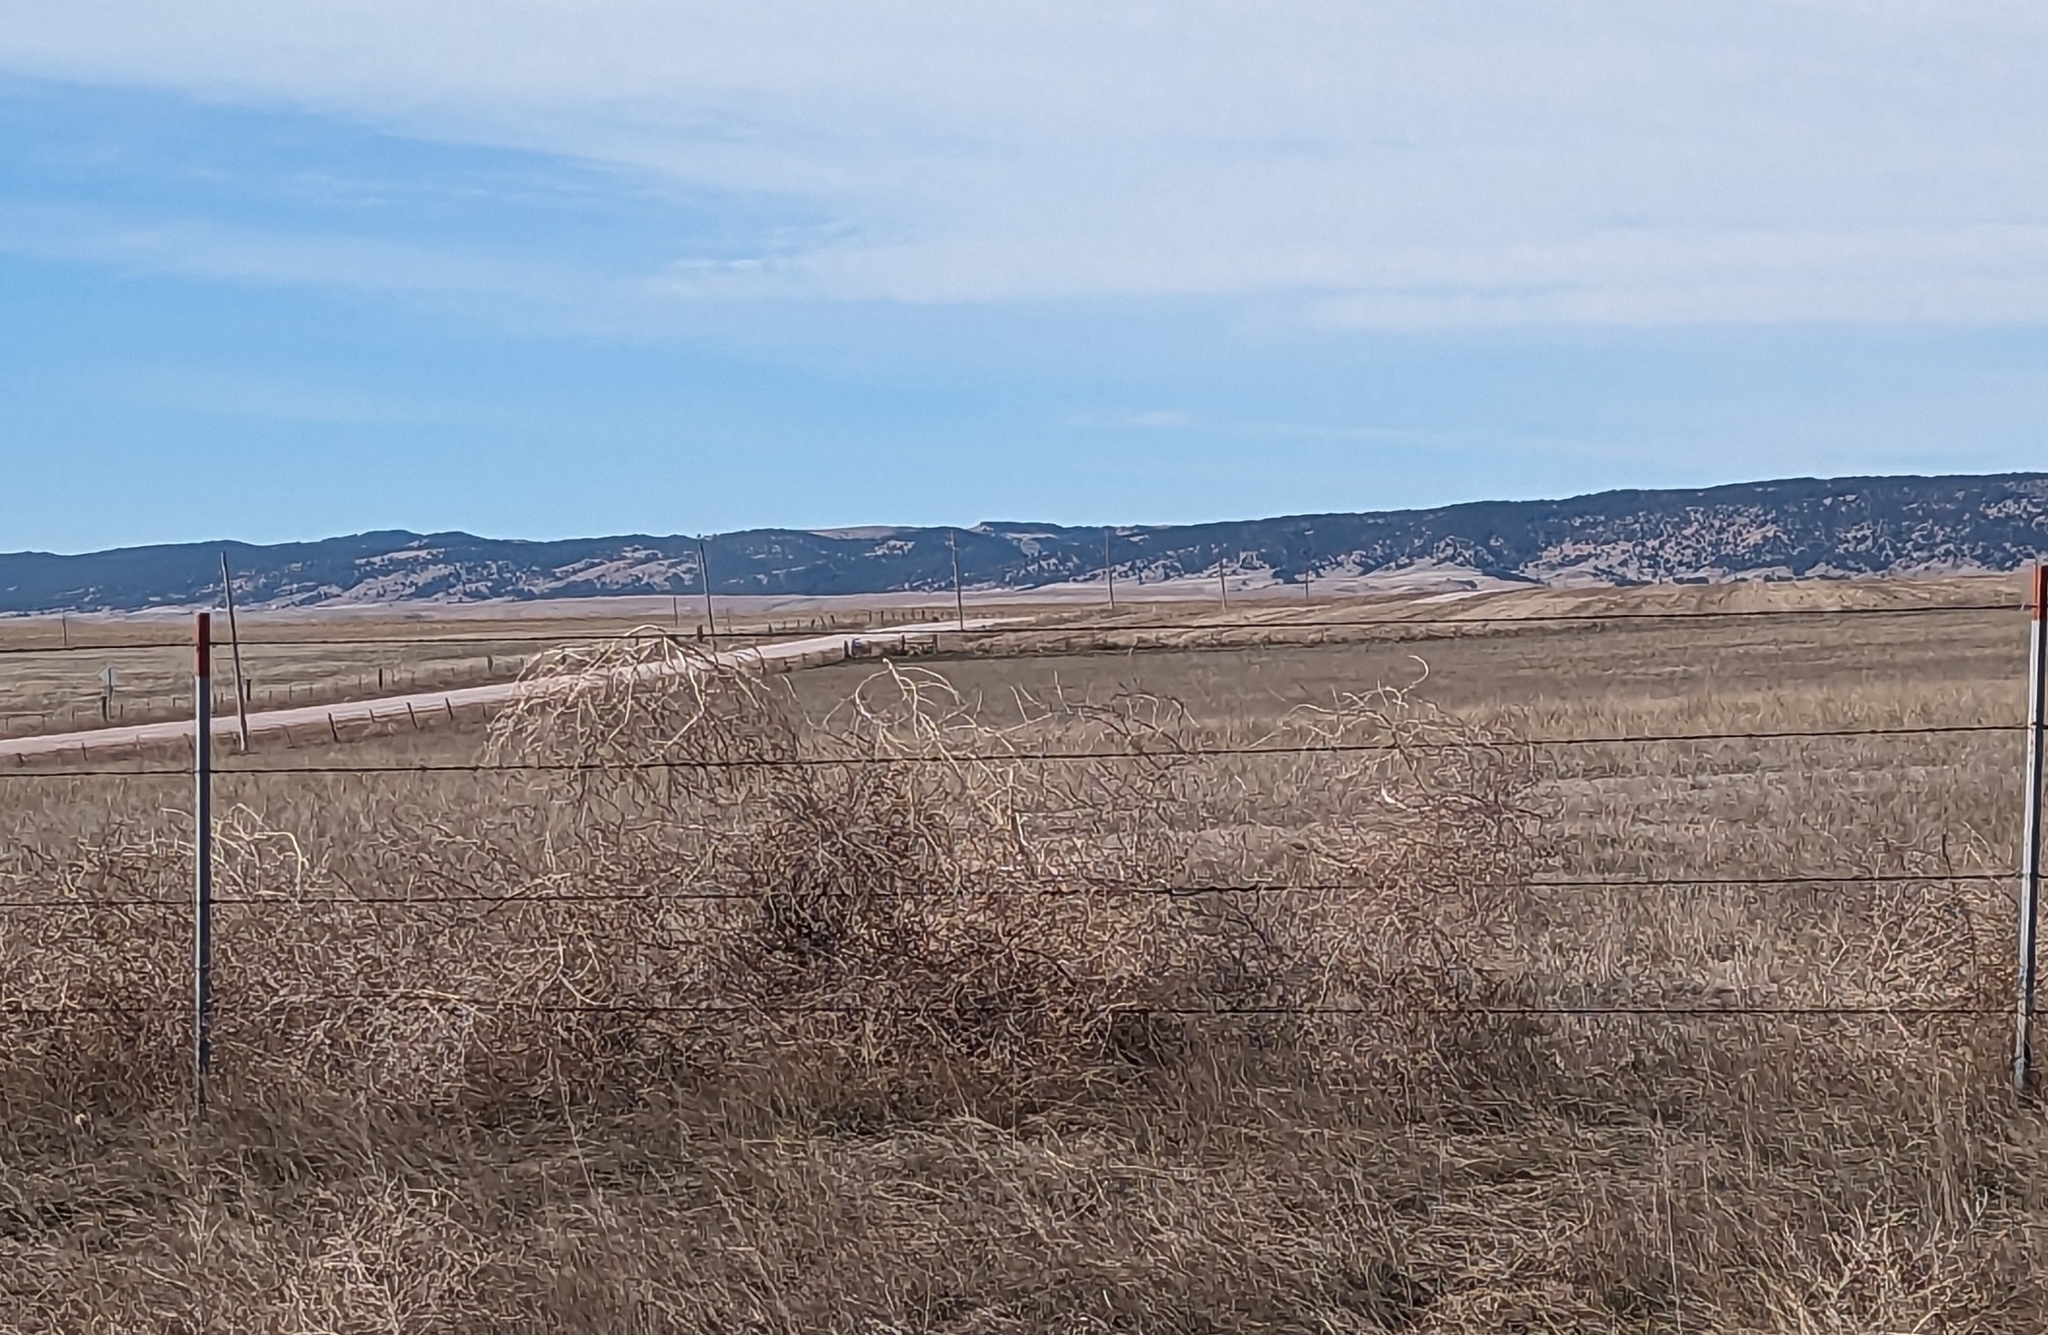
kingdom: Plantae
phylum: Tracheophyta
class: Magnoliopsida
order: Caryophyllales
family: Amaranthaceae
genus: Salsola
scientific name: Salsola tragus
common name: Prickly russian thistle
